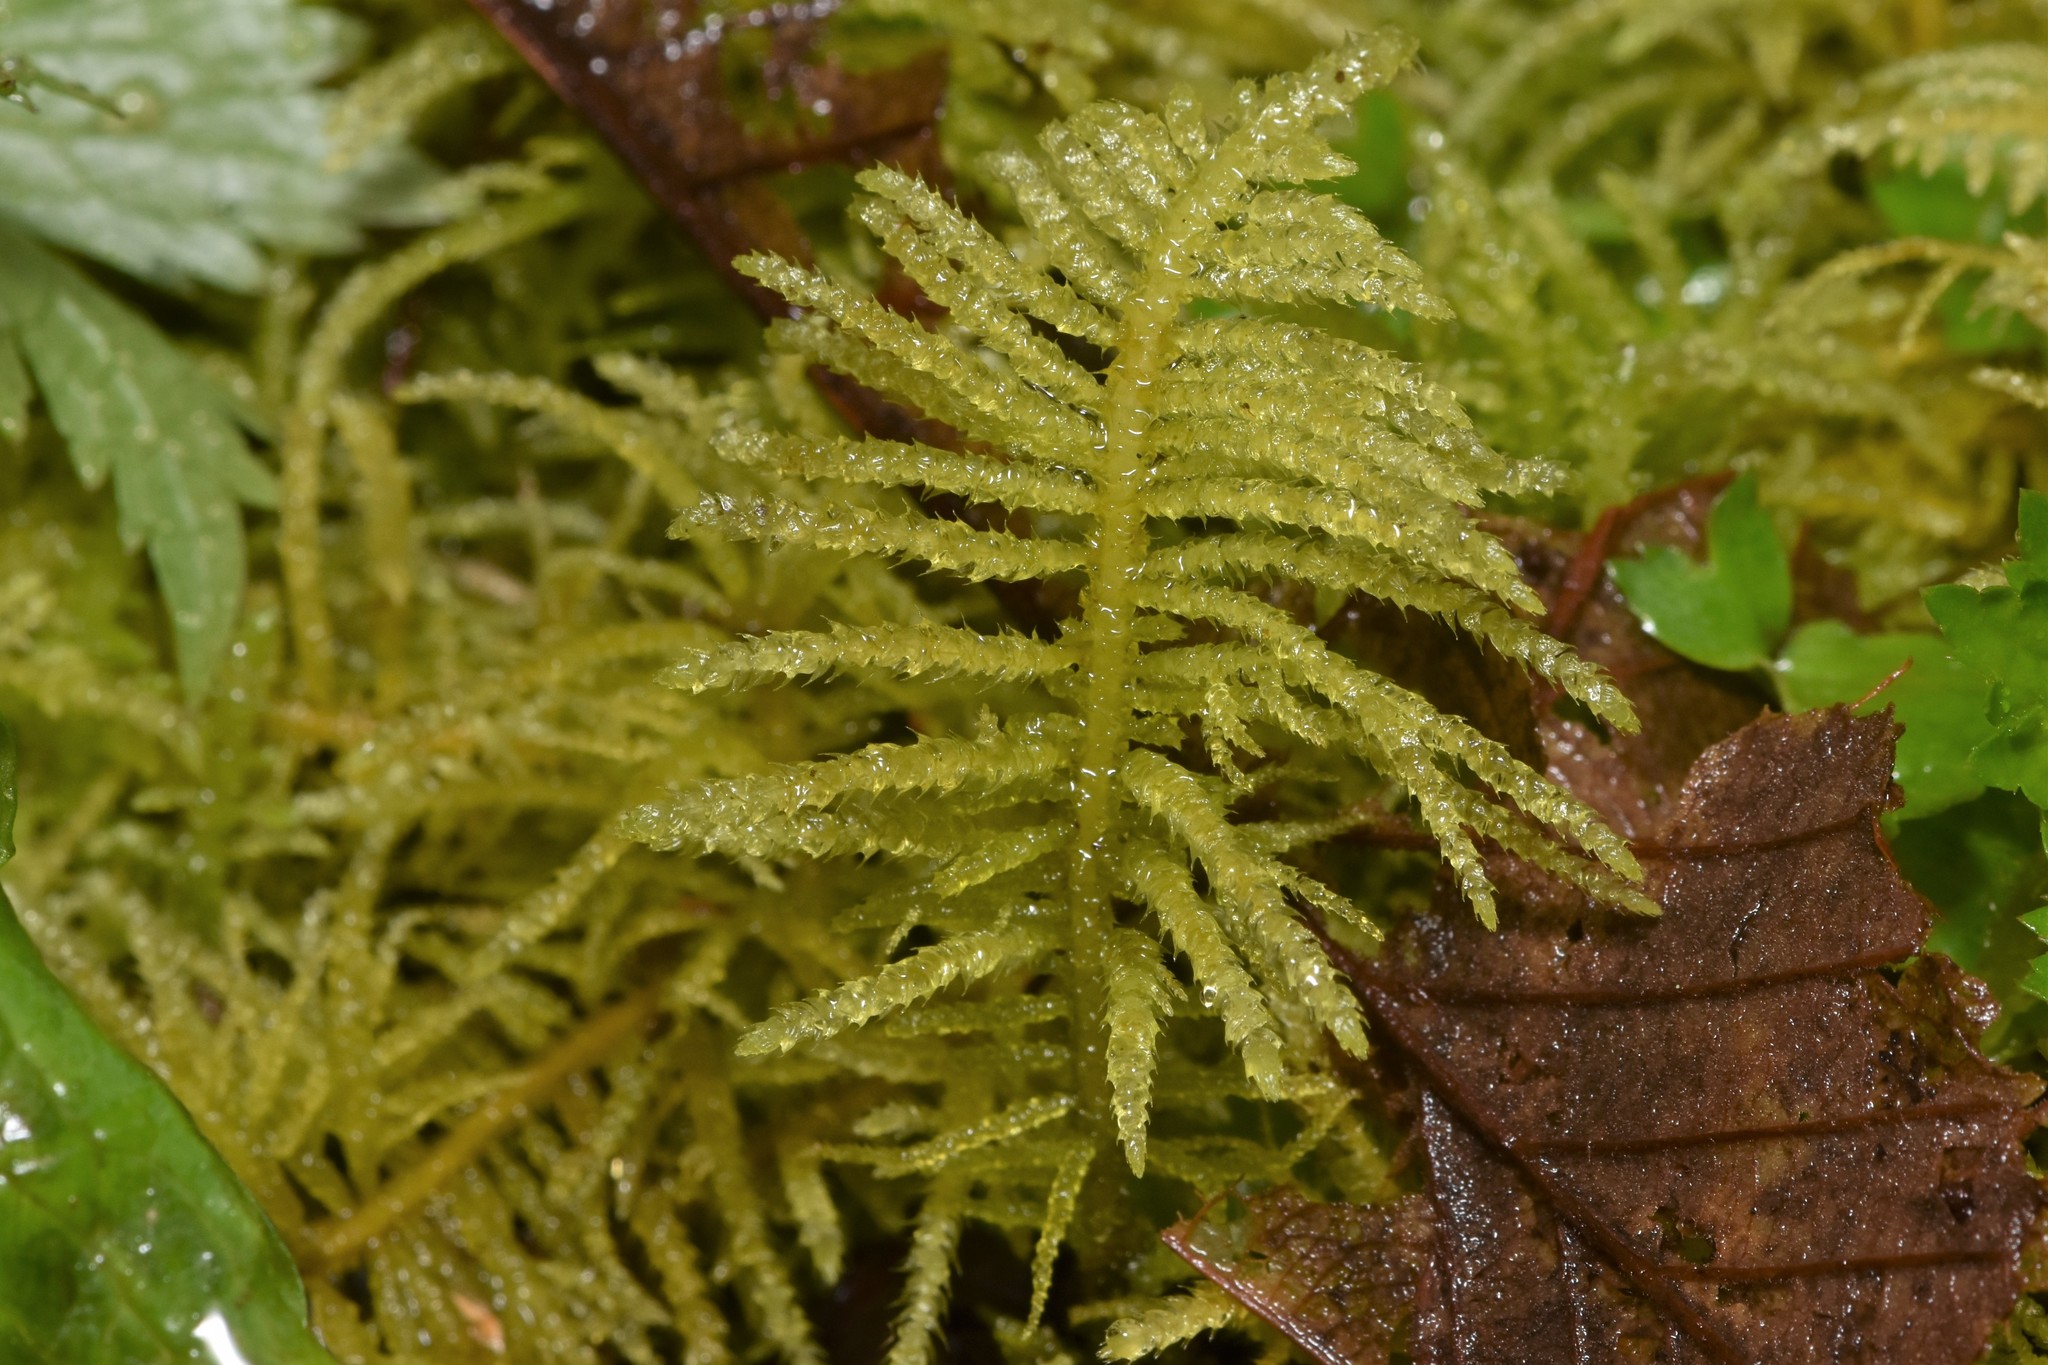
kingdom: Plantae
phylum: Bryophyta
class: Bryopsida
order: Hypnales
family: Brachytheciaceae
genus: Kindbergia
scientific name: Kindbergia oregana
